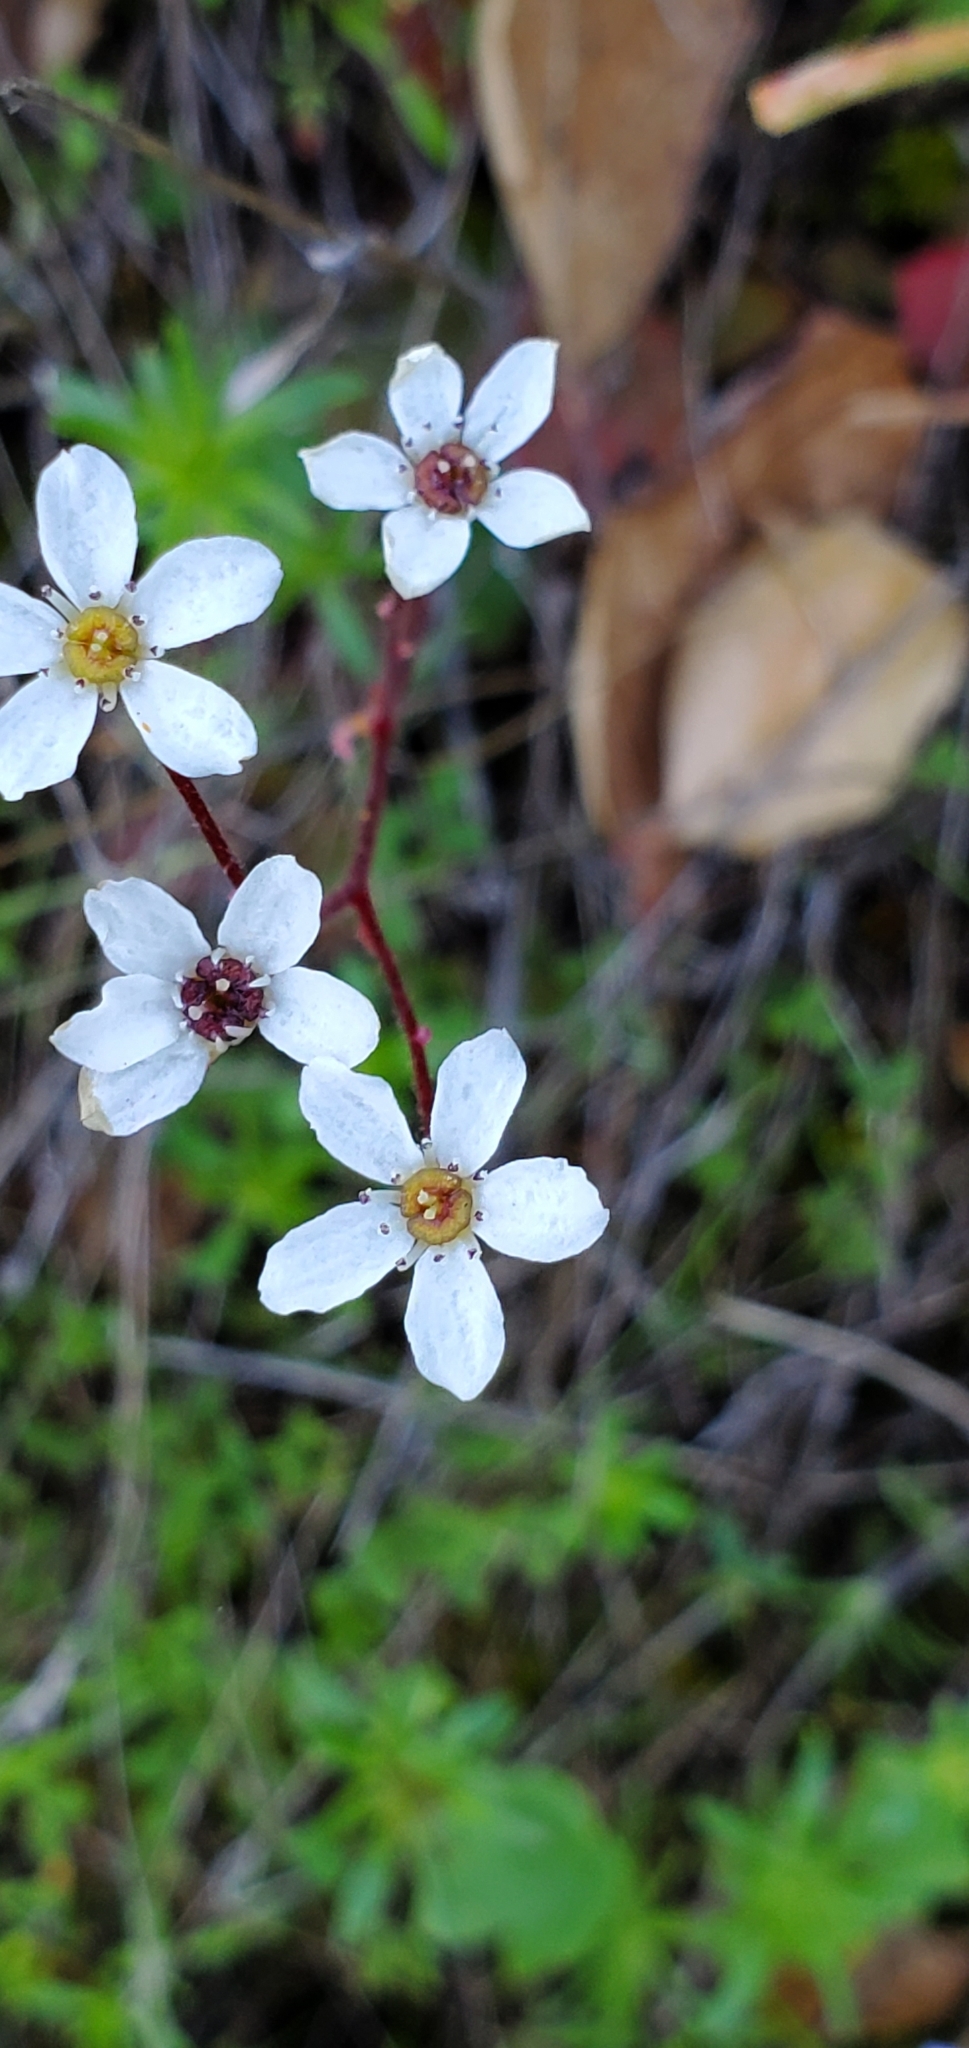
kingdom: Plantae
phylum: Tracheophyta
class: Magnoliopsida
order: Saxifragales
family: Saxifragaceae
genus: Micranthes
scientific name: Micranthes californica
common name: California saxifrage
